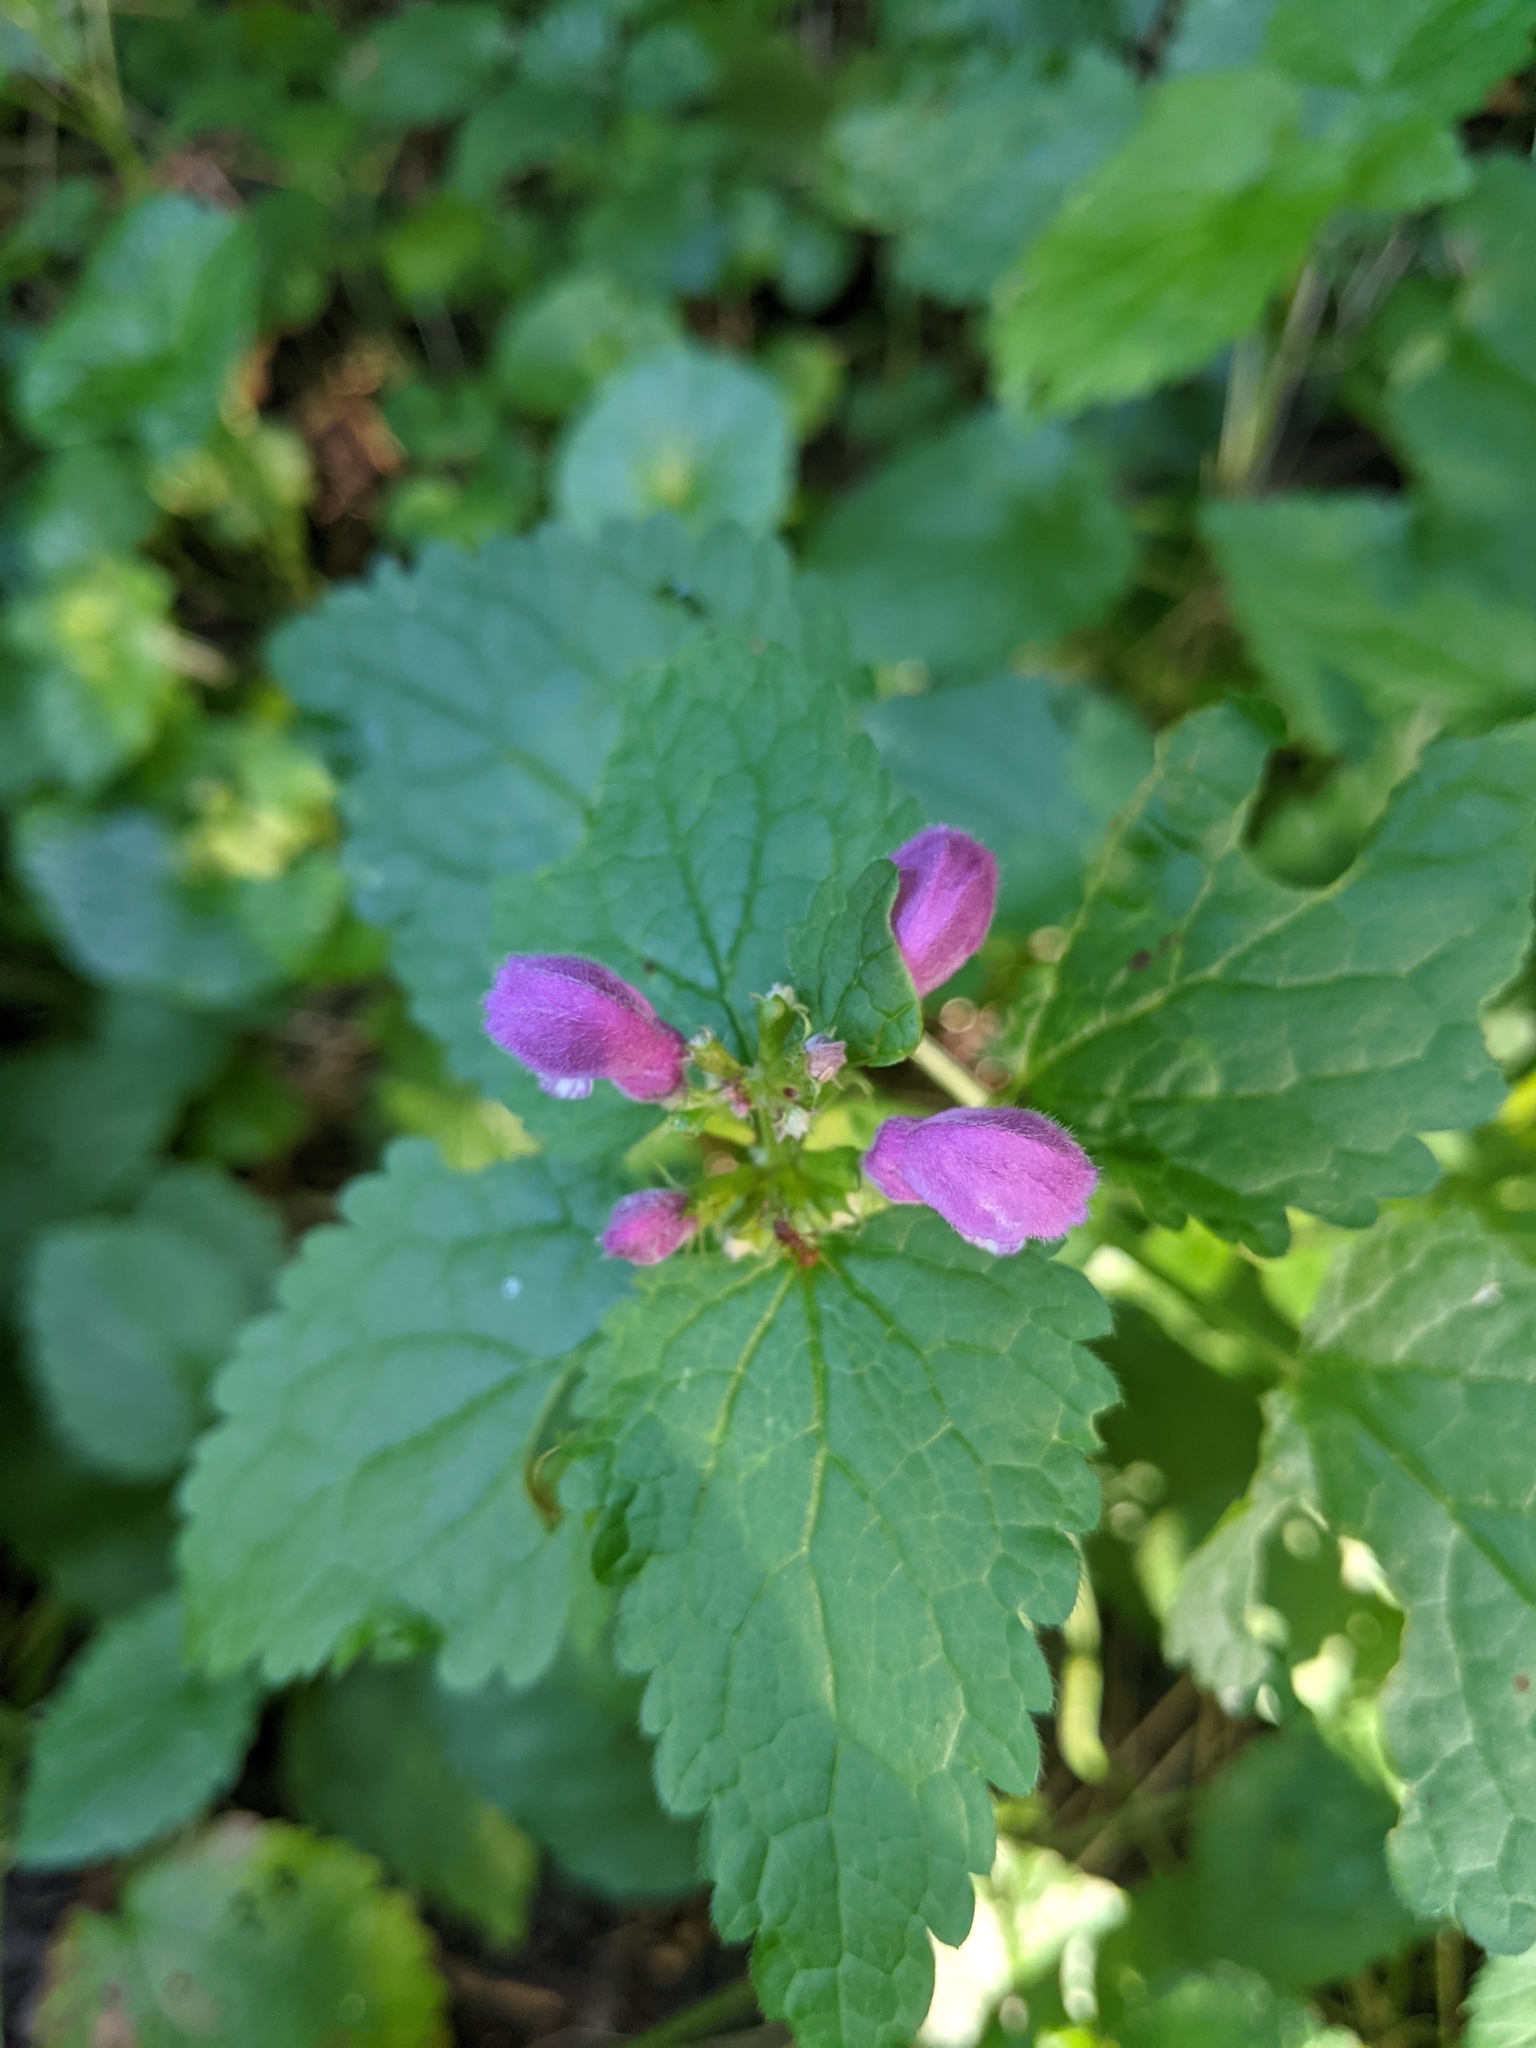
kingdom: Plantae
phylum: Tracheophyta
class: Magnoliopsida
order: Lamiales
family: Lamiaceae
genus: Lamium
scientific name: Lamium maculatum
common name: Spotted dead-nettle
